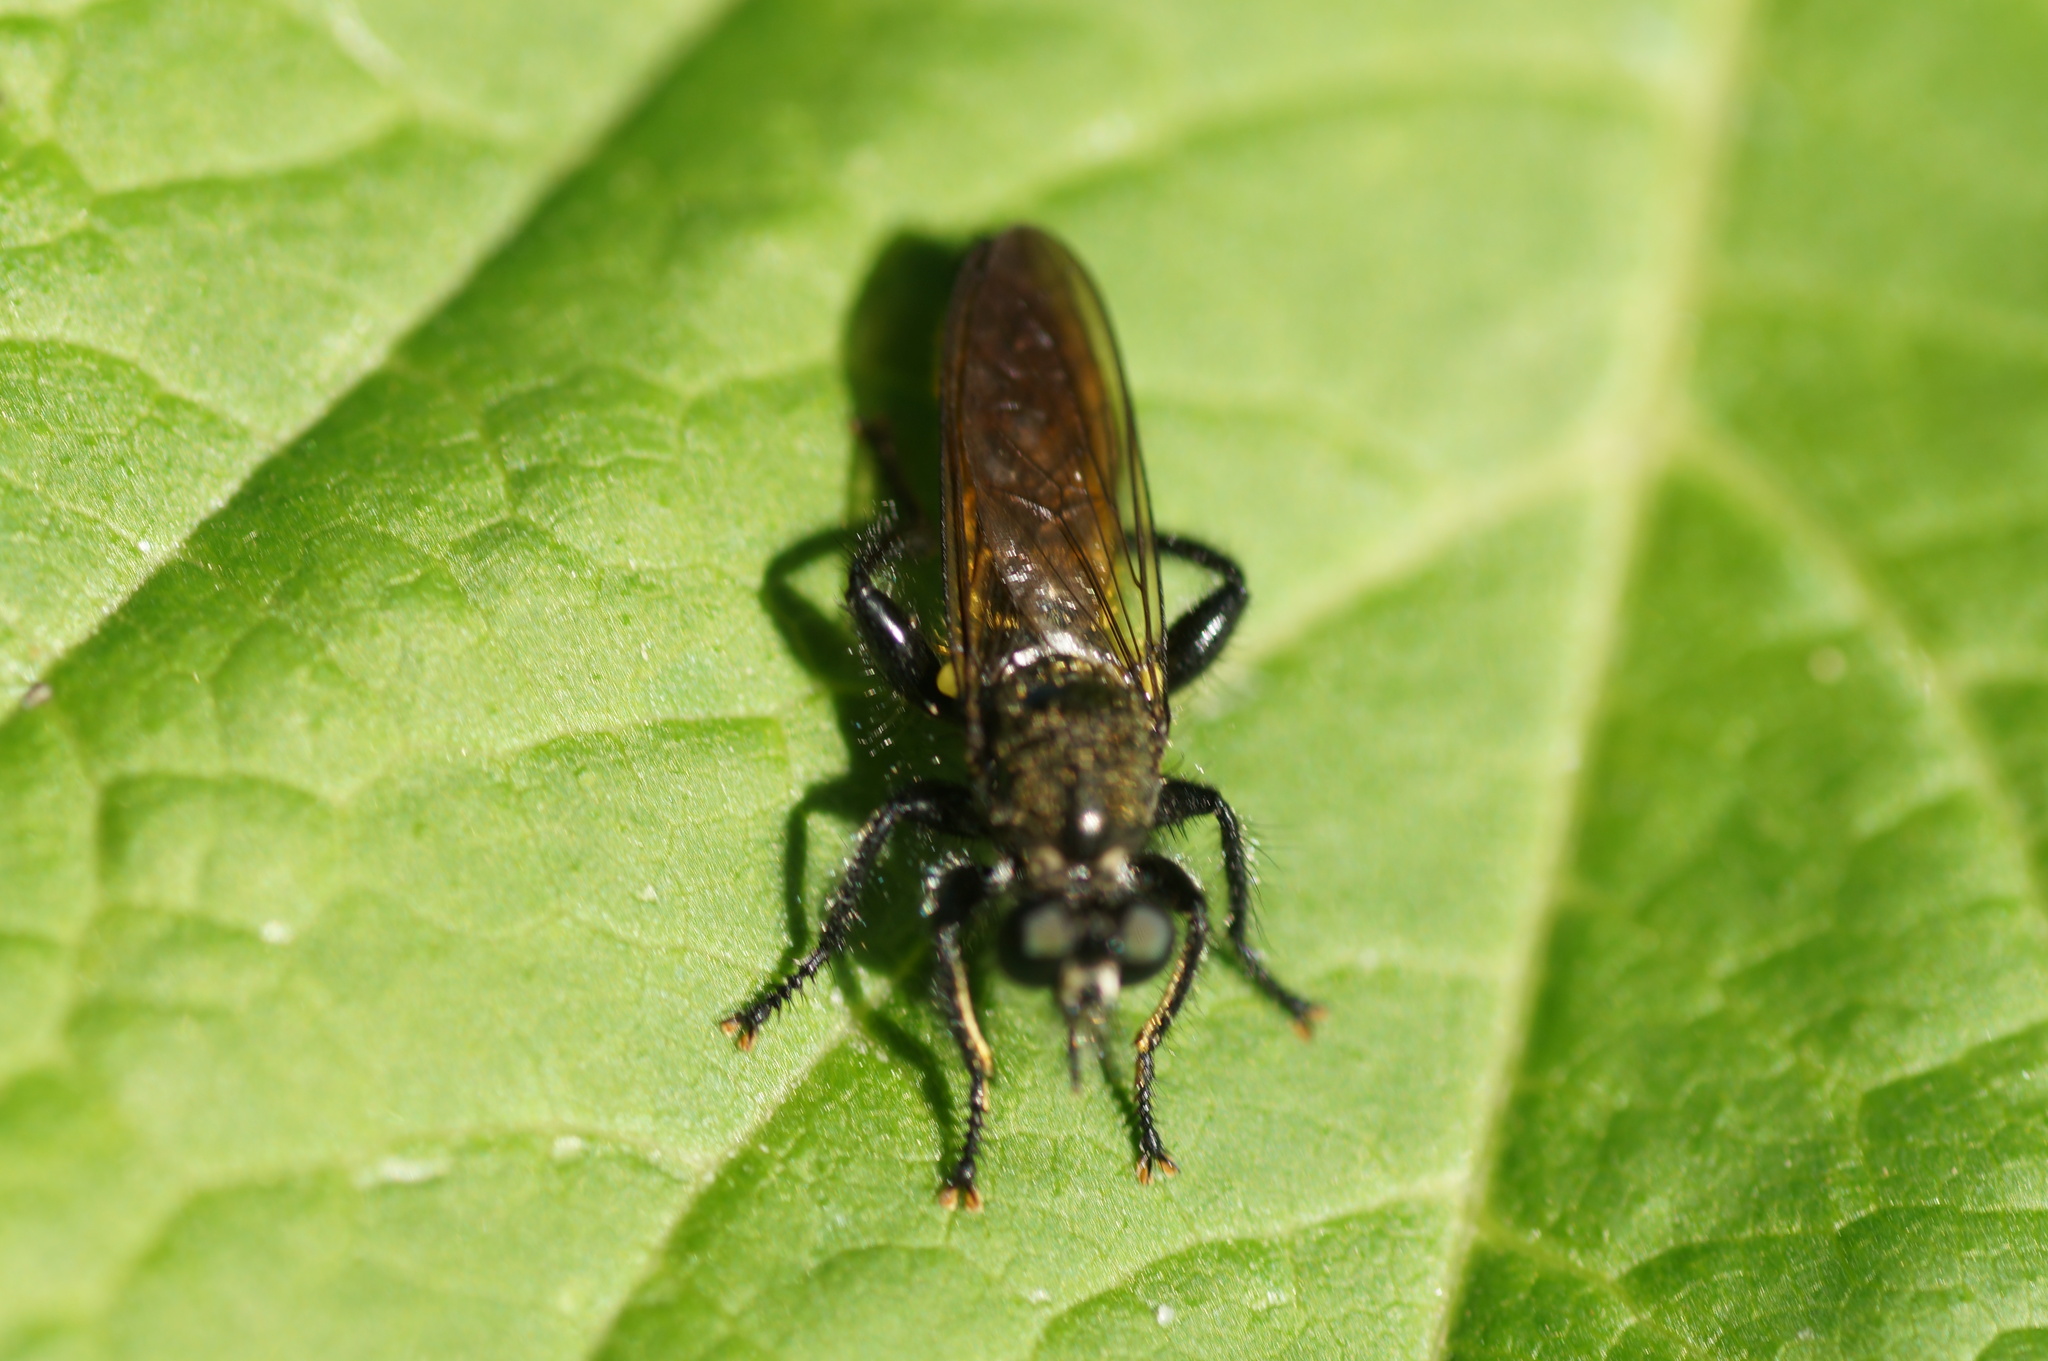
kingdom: Animalia
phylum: Arthropoda
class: Insecta
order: Diptera
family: Asilidae
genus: Choerades
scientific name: Choerades
